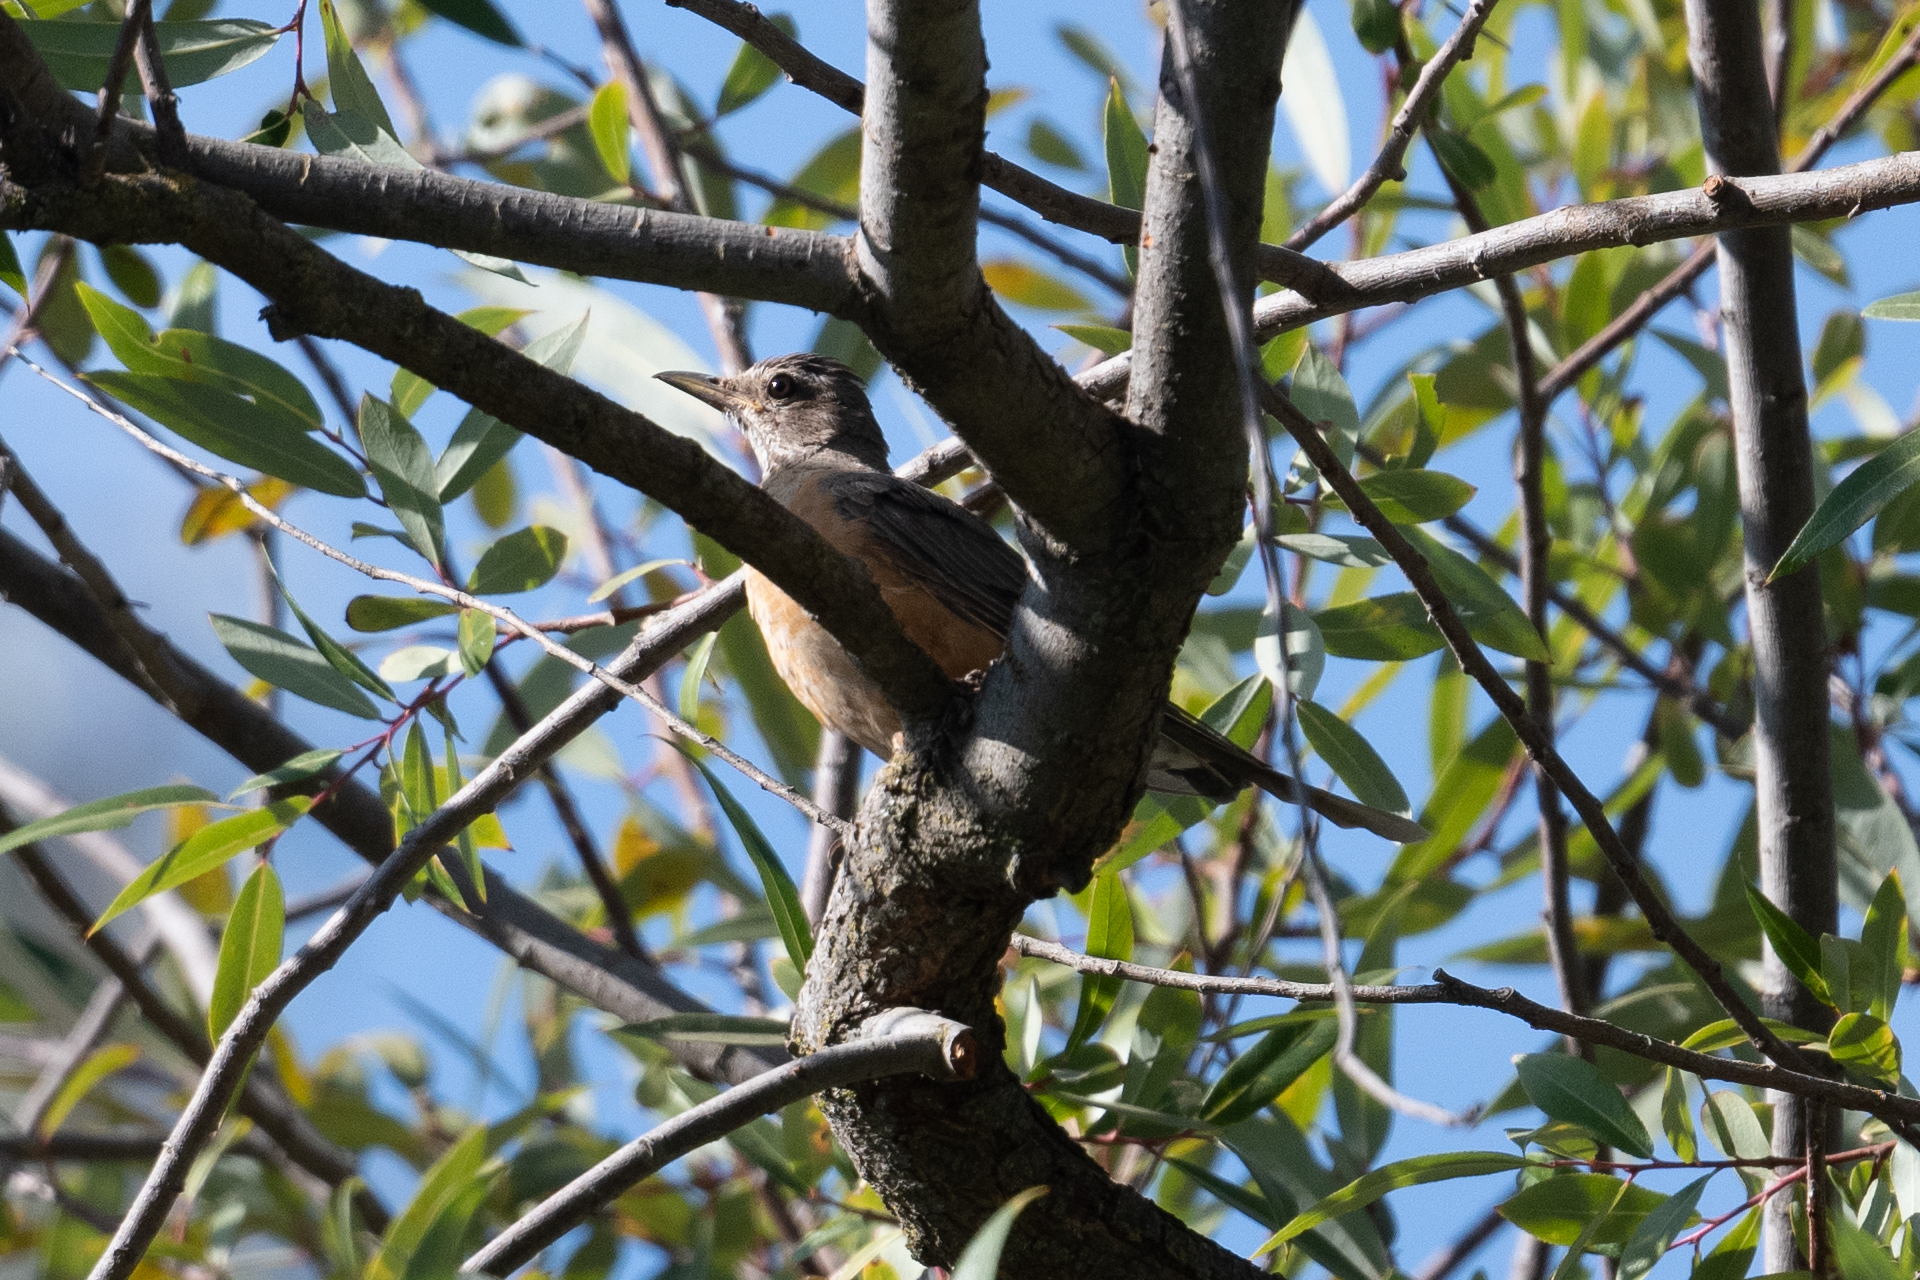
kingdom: Animalia
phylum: Chordata
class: Aves
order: Passeriformes
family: Turdidae
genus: Turdus
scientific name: Turdus migratorius
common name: American robin
